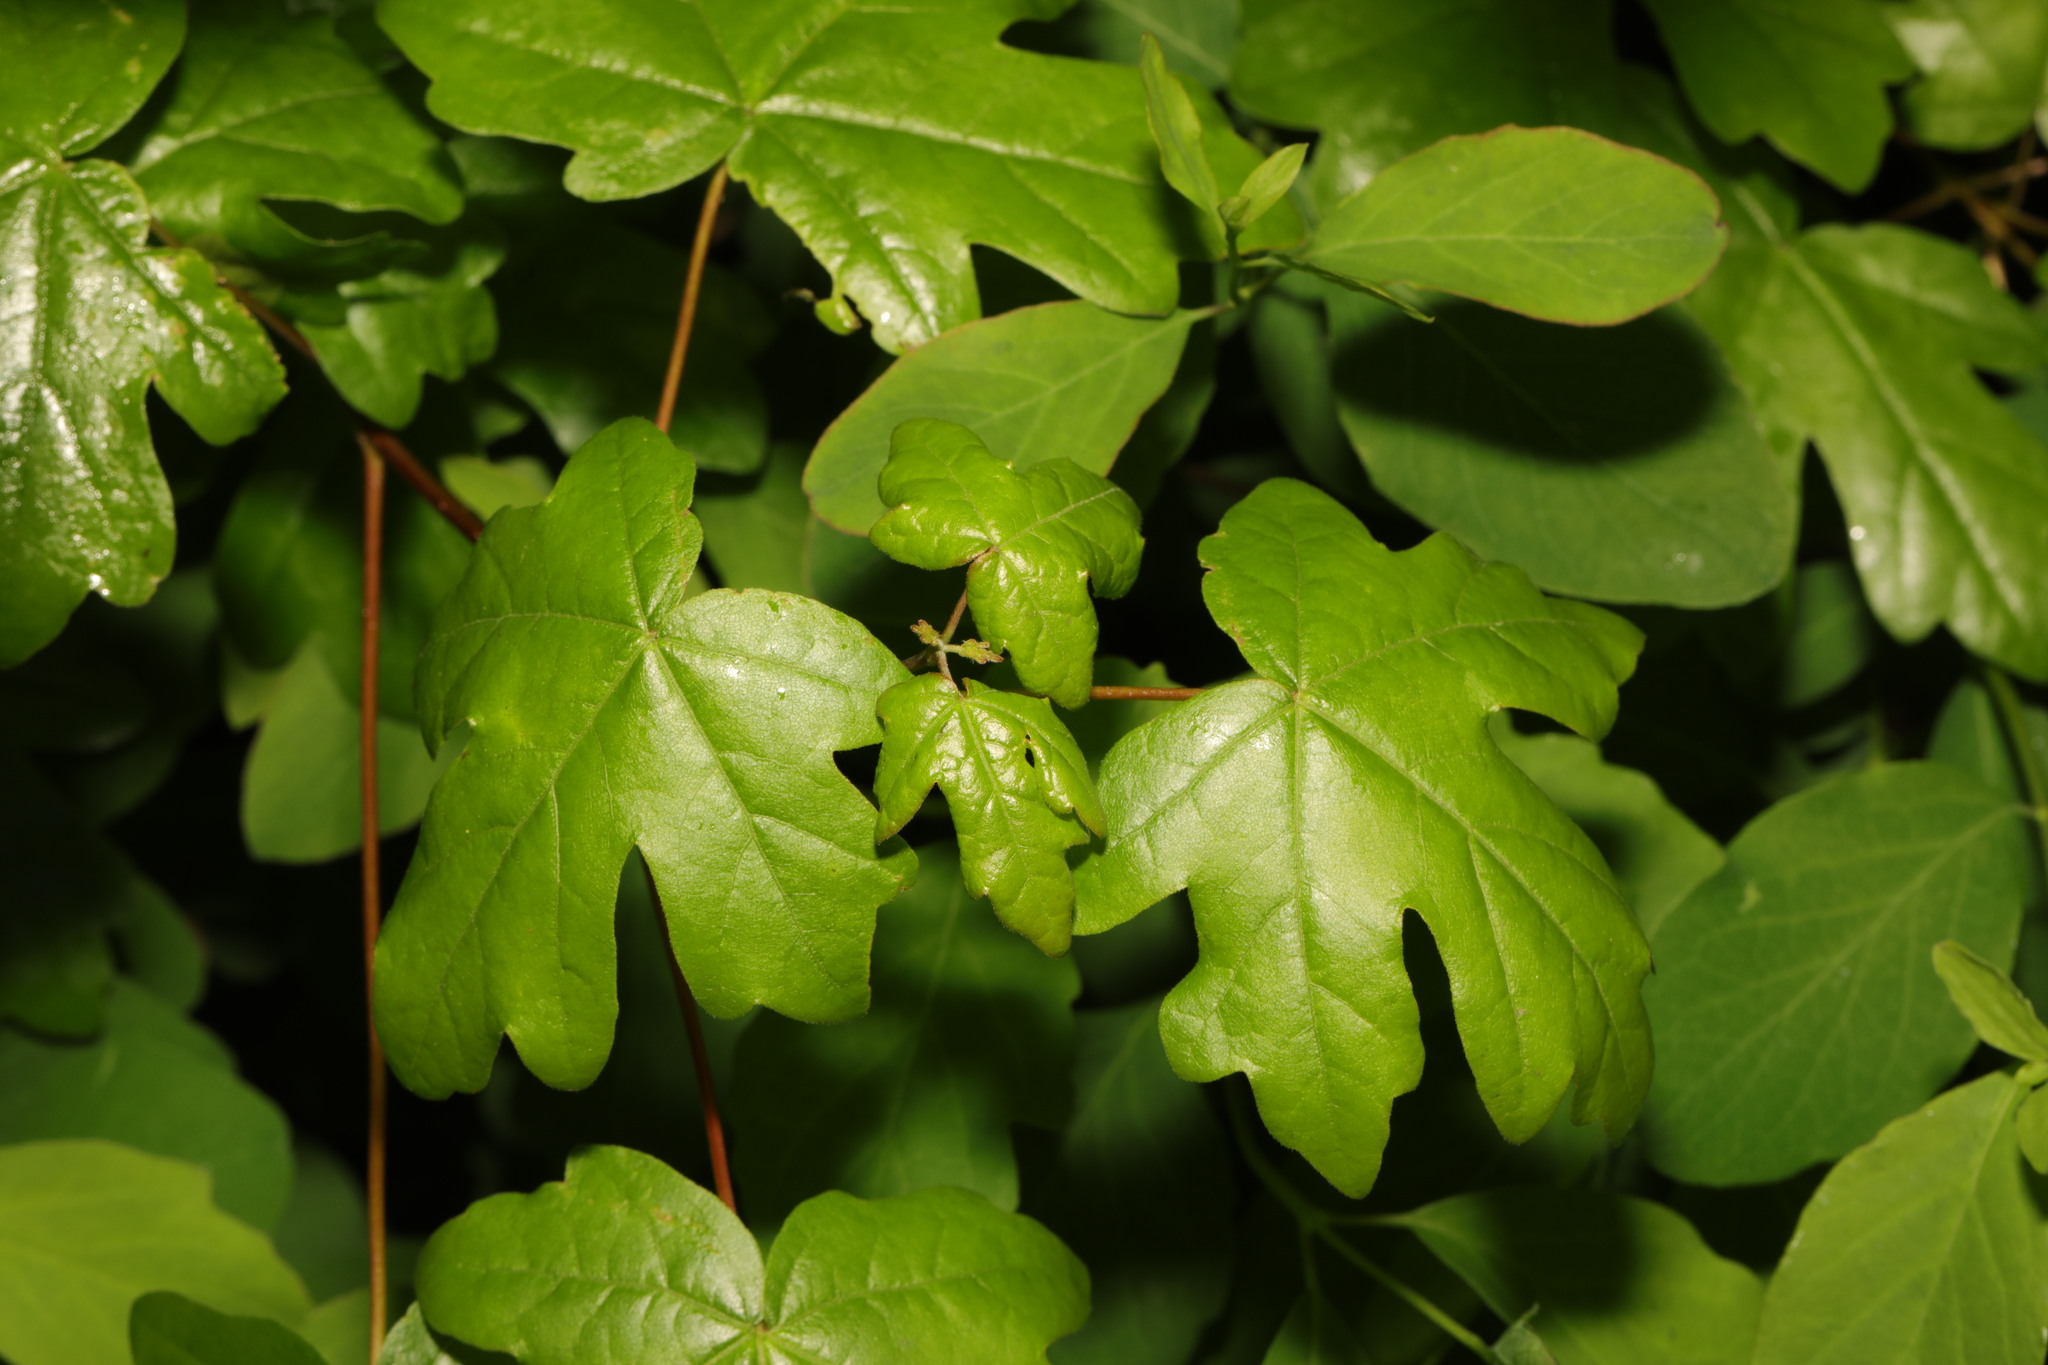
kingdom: Plantae
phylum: Tracheophyta
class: Magnoliopsida
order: Sapindales
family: Sapindaceae
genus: Acer
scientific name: Acer campestre
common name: Field maple
